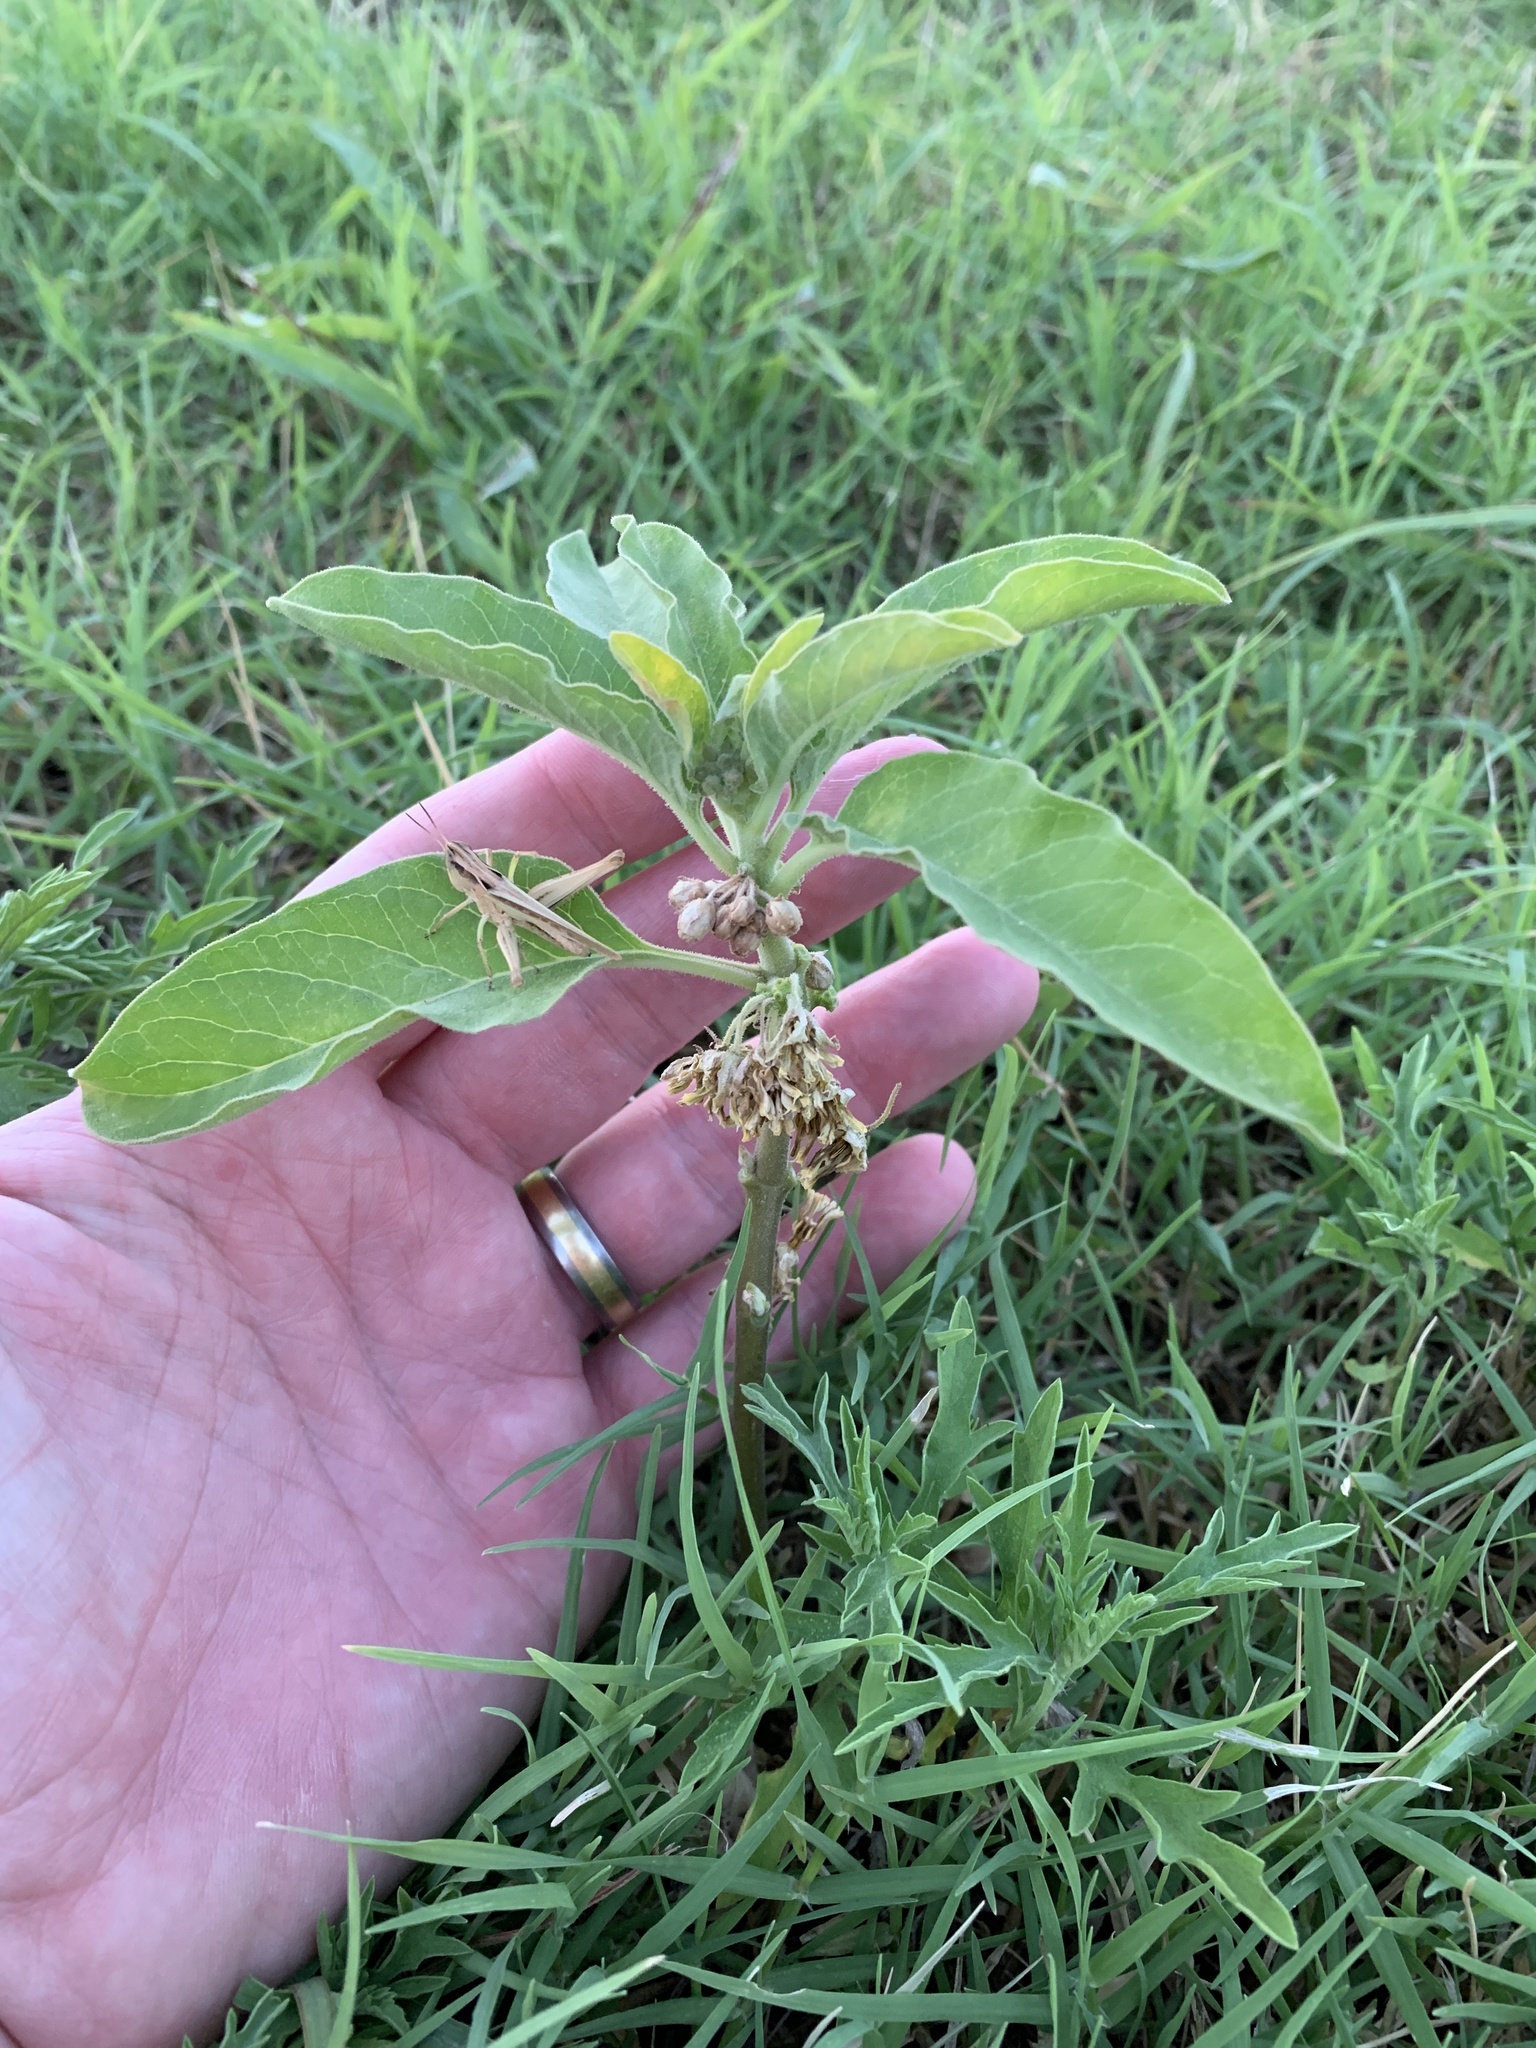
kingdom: Plantae
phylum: Tracheophyta
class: Magnoliopsida
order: Gentianales
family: Apocynaceae
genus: Asclepias
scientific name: Asclepias oenotheroides
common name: Zizotes milkweed
